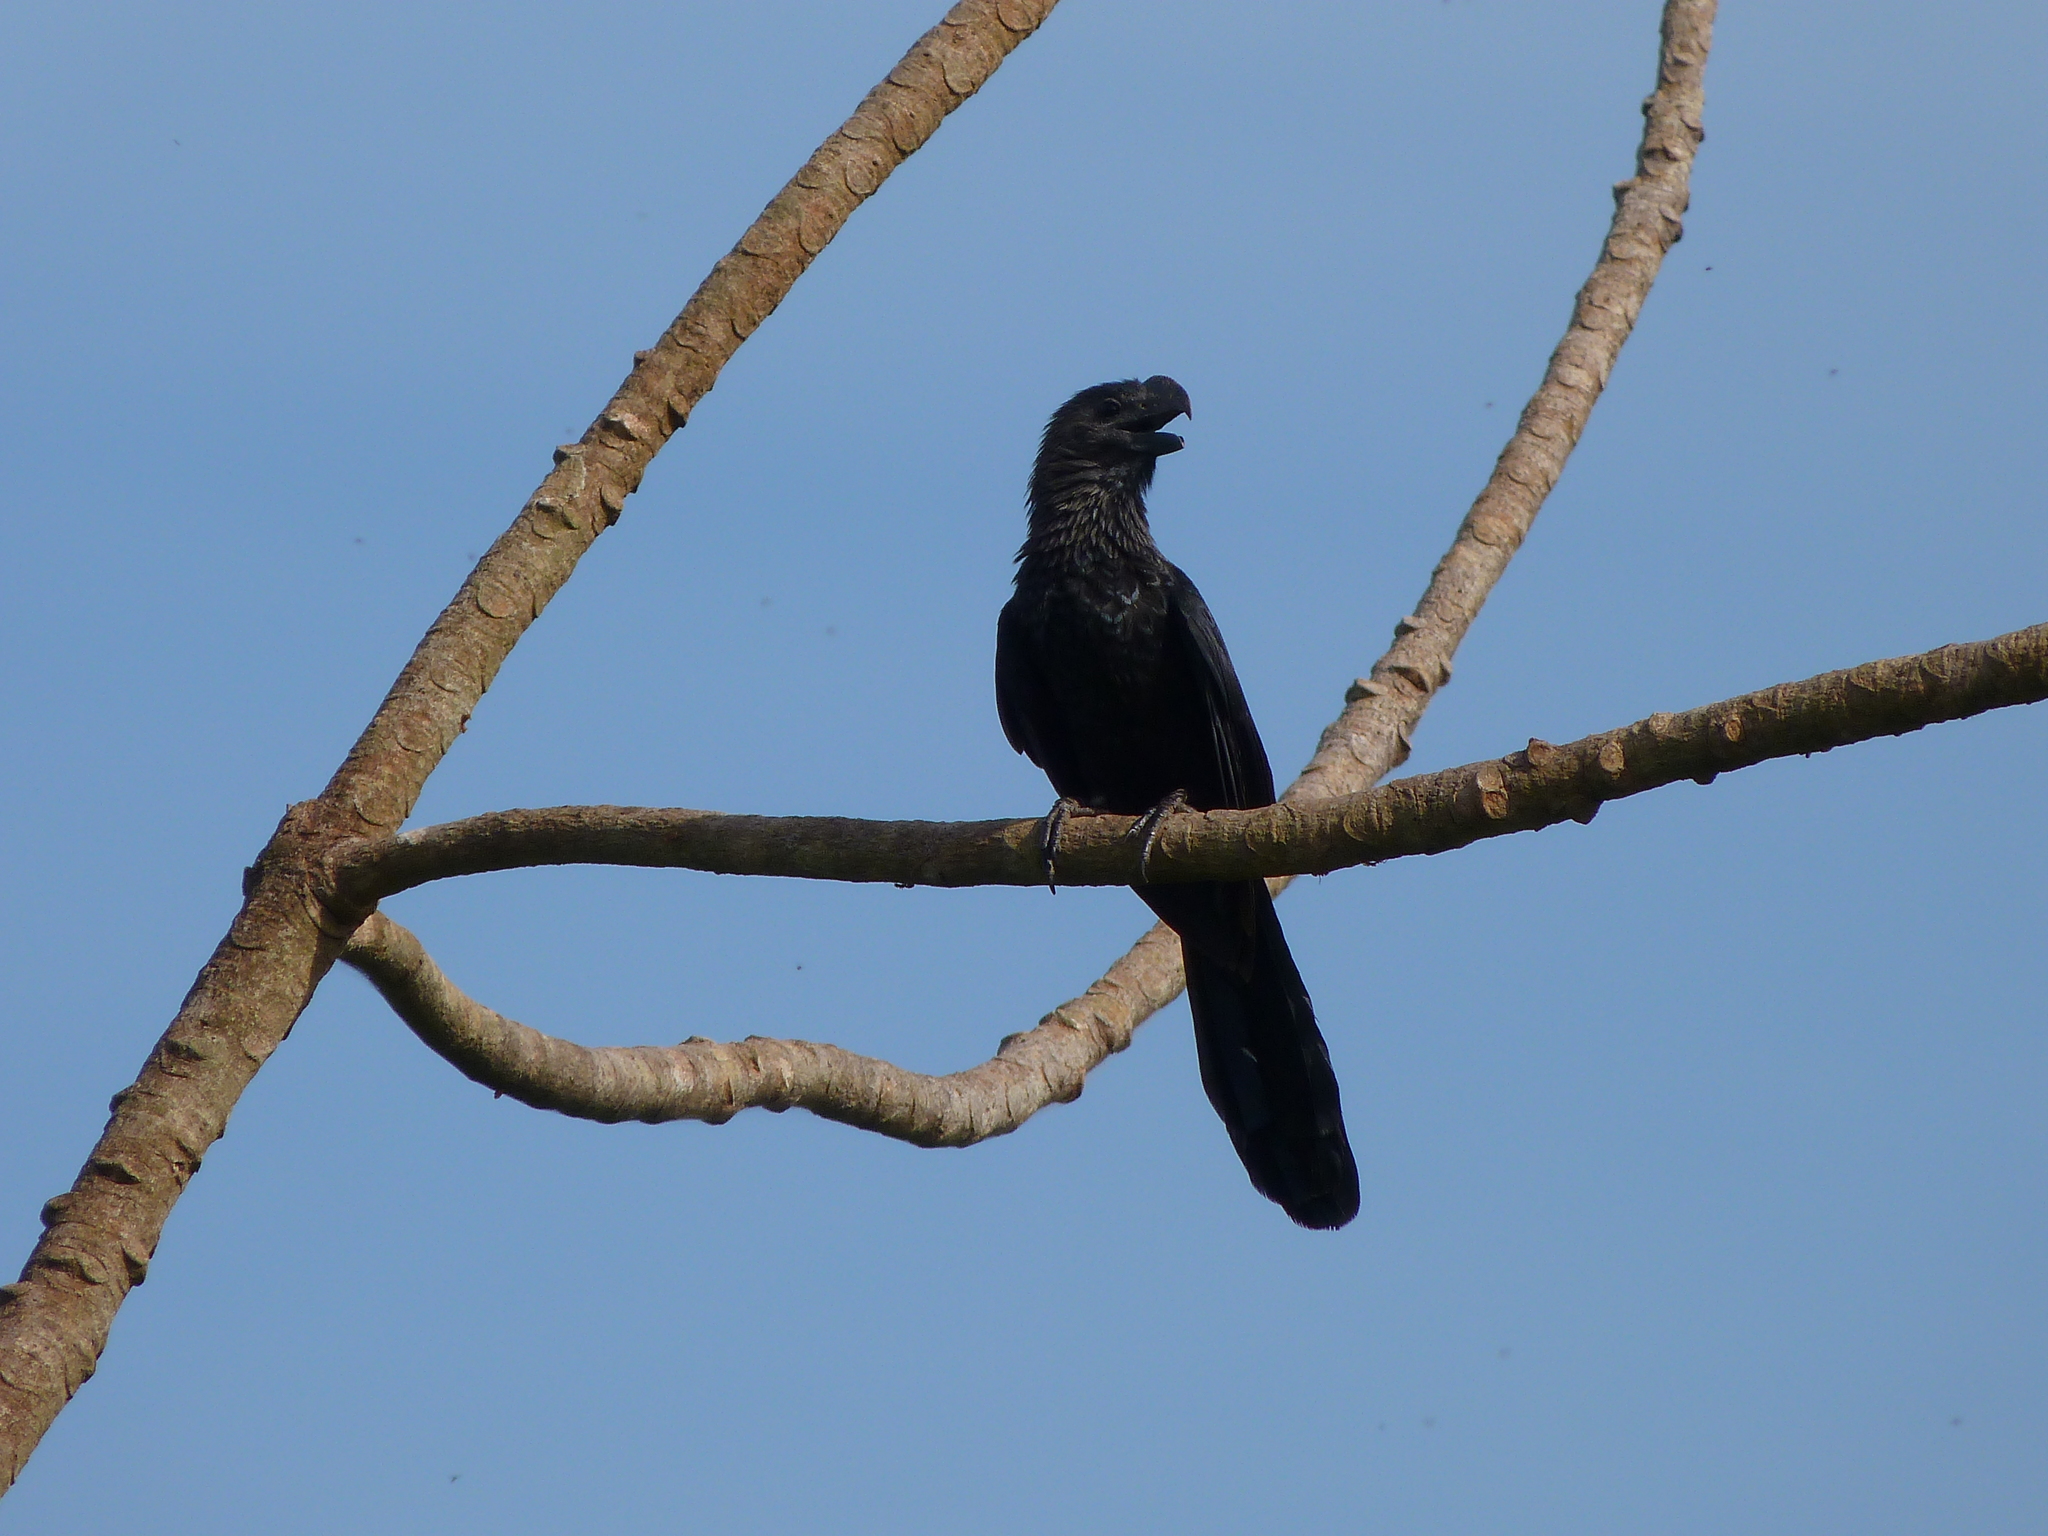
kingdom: Animalia
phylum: Chordata
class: Aves
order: Cuculiformes
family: Cuculidae
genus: Crotophaga
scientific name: Crotophaga ani
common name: Smooth-billed ani
